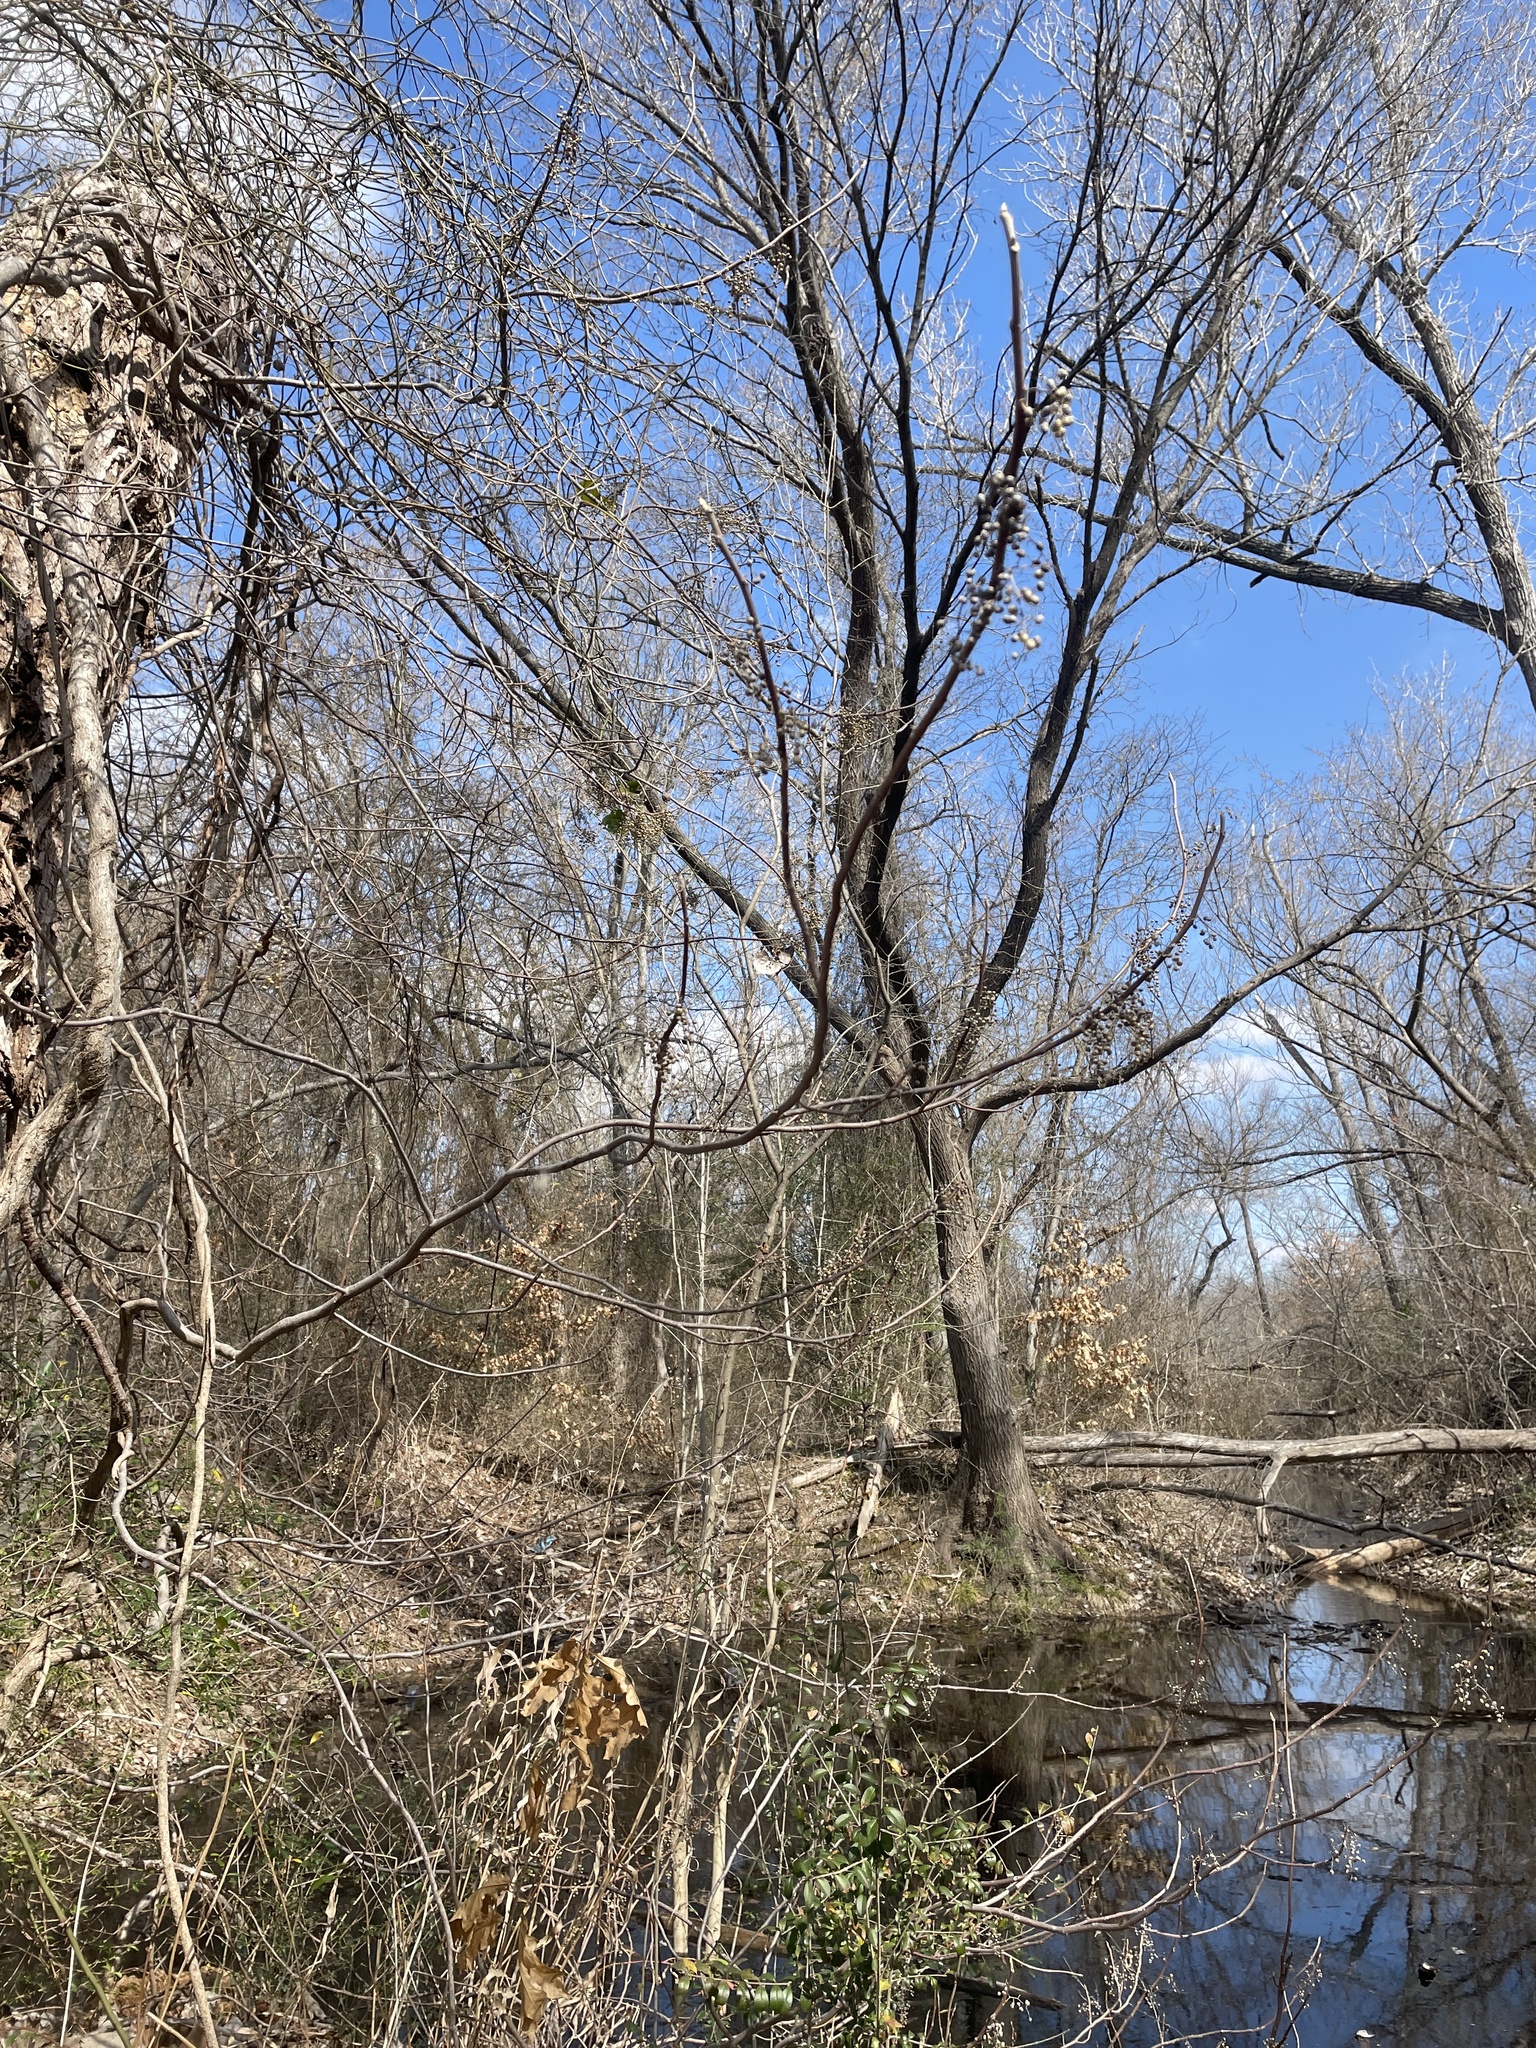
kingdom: Plantae
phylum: Tracheophyta
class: Magnoliopsida
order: Sapindales
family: Anacardiaceae
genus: Toxicodendron
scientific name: Toxicodendron radicans
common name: Poison ivy
